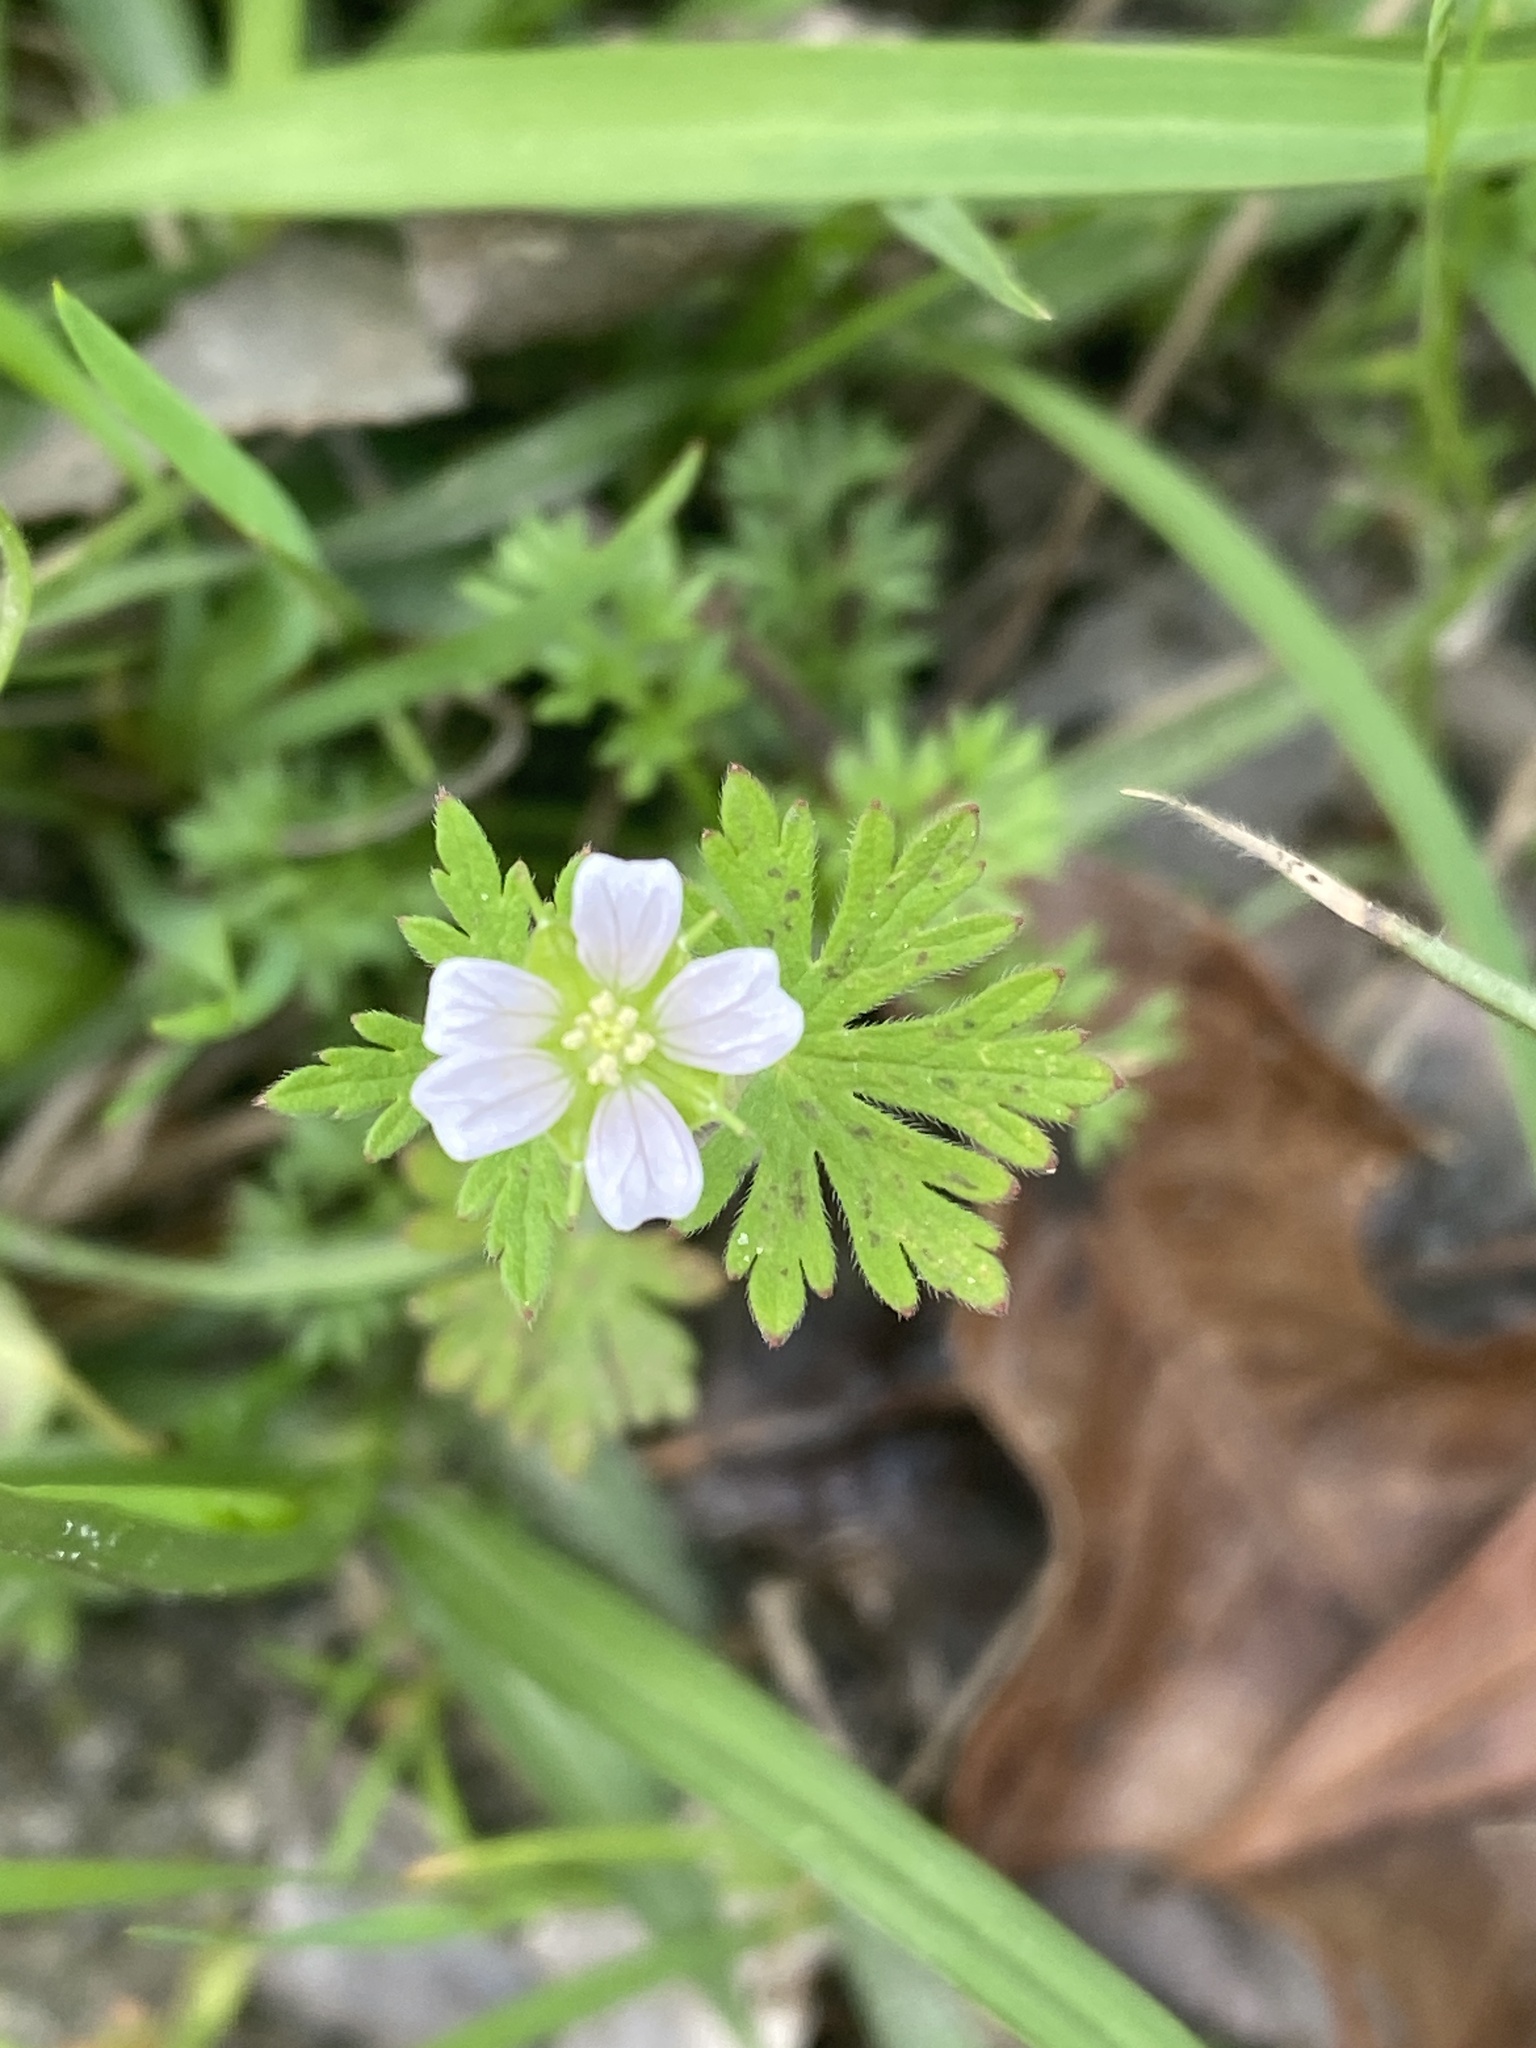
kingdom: Plantae
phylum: Tracheophyta
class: Magnoliopsida
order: Geraniales
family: Geraniaceae
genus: Geranium
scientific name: Geranium carolinianum
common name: Carolina crane's-bill
